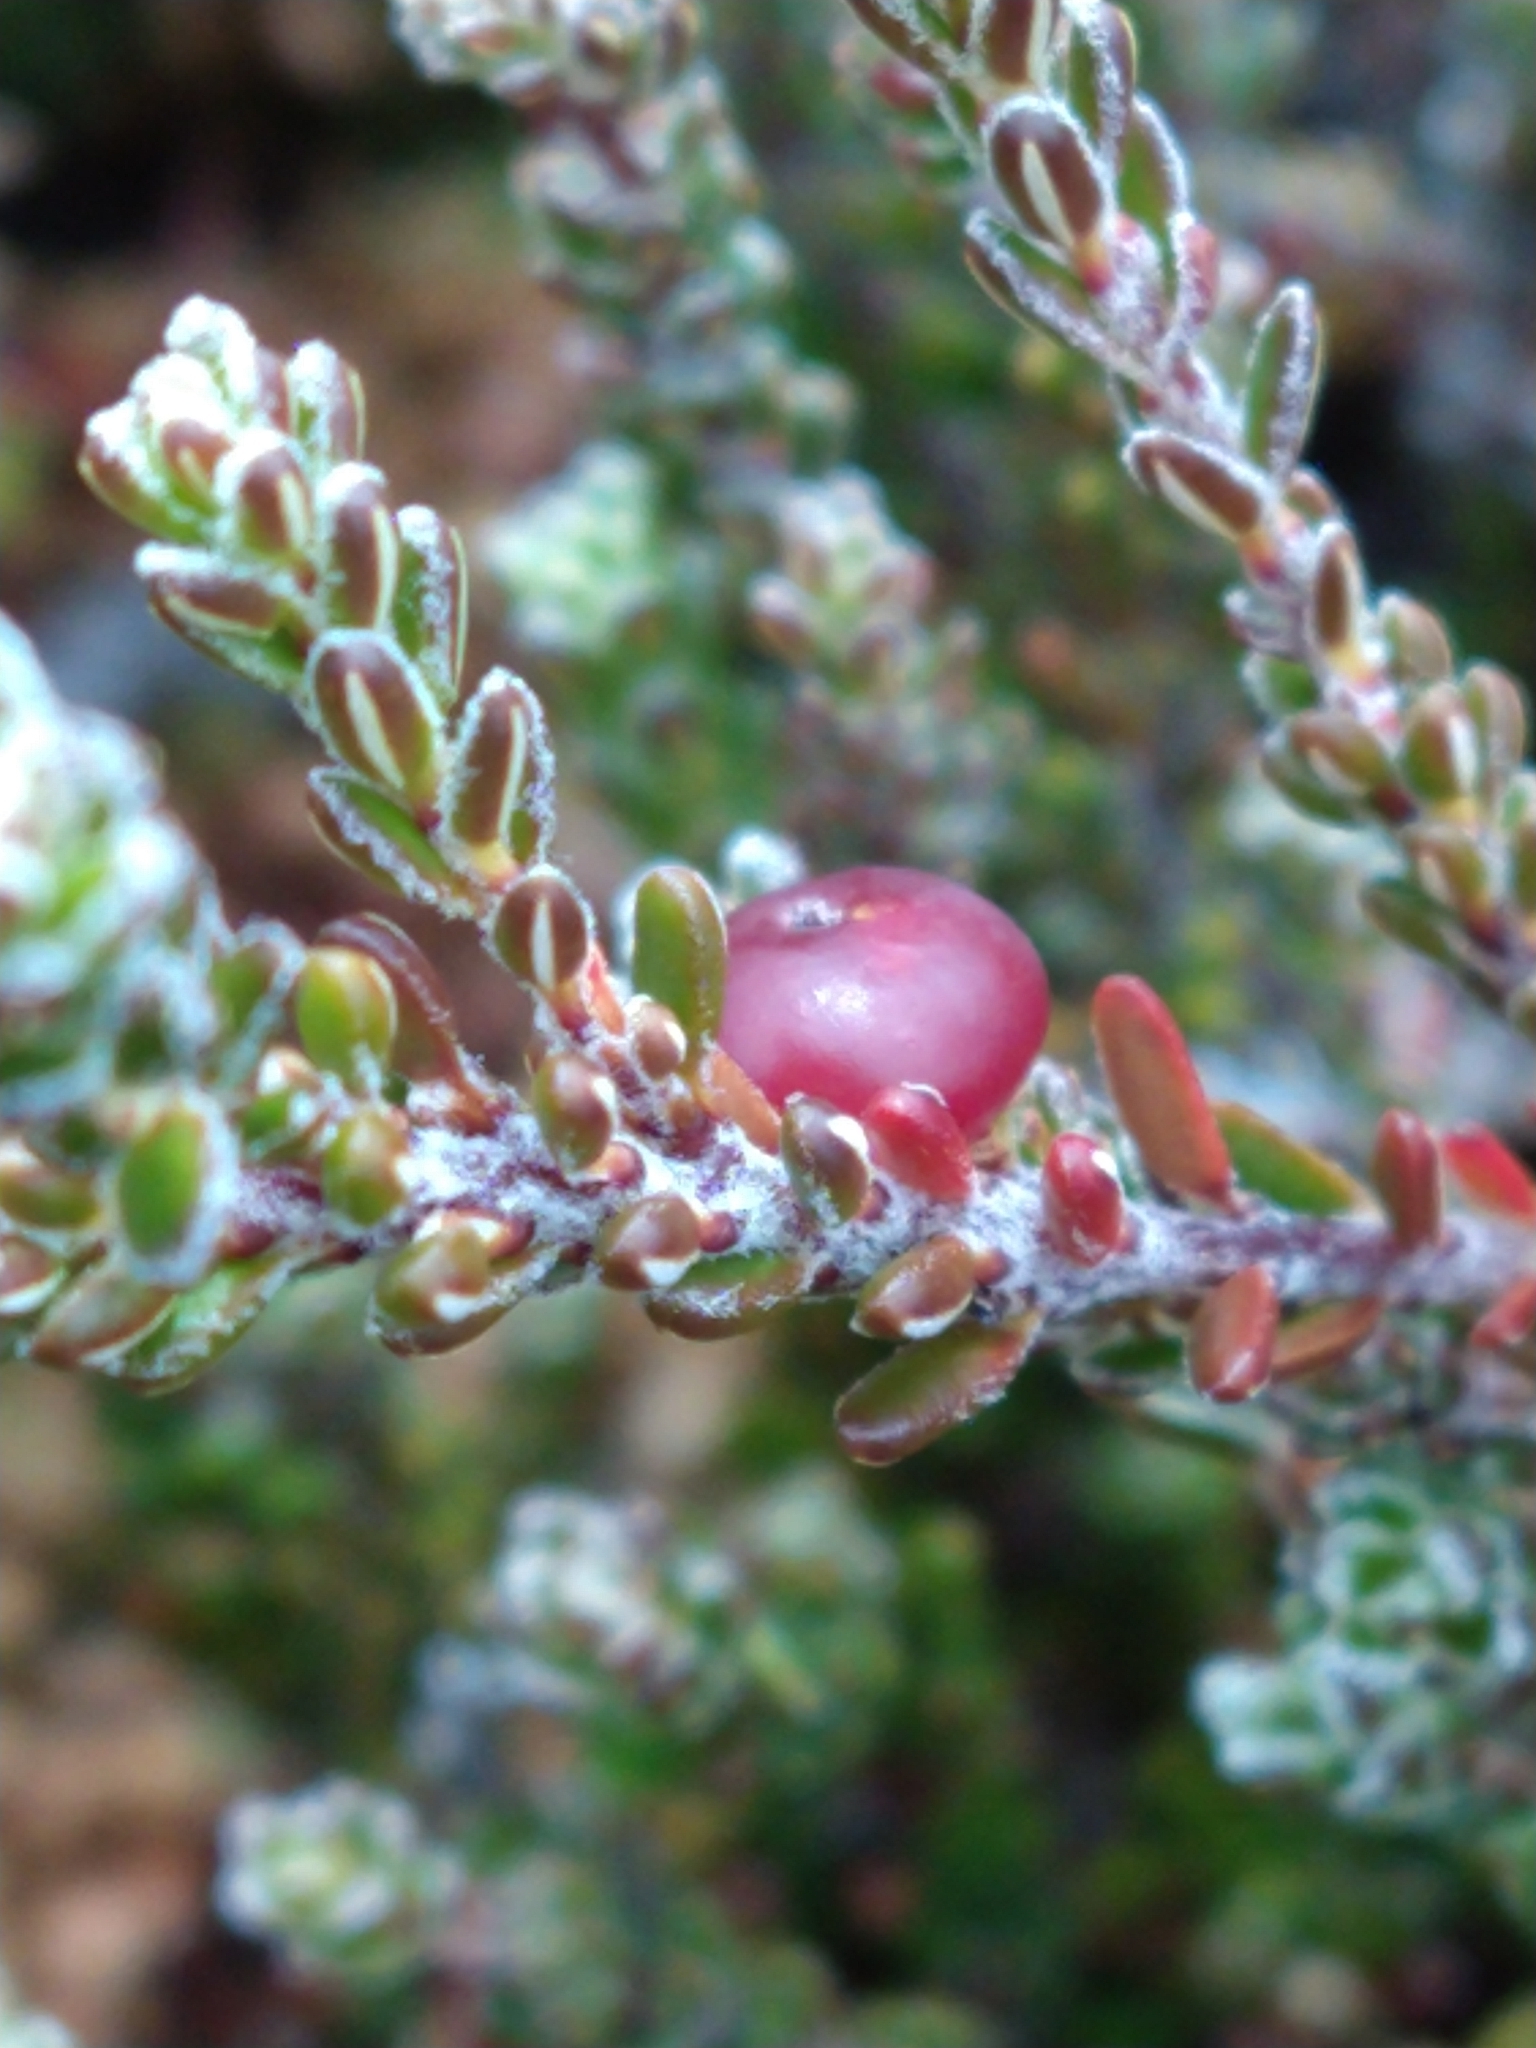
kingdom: Plantae
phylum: Tracheophyta
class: Magnoliopsida
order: Ericales
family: Ericaceae
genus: Empetrum
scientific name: Empetrum rubrum
